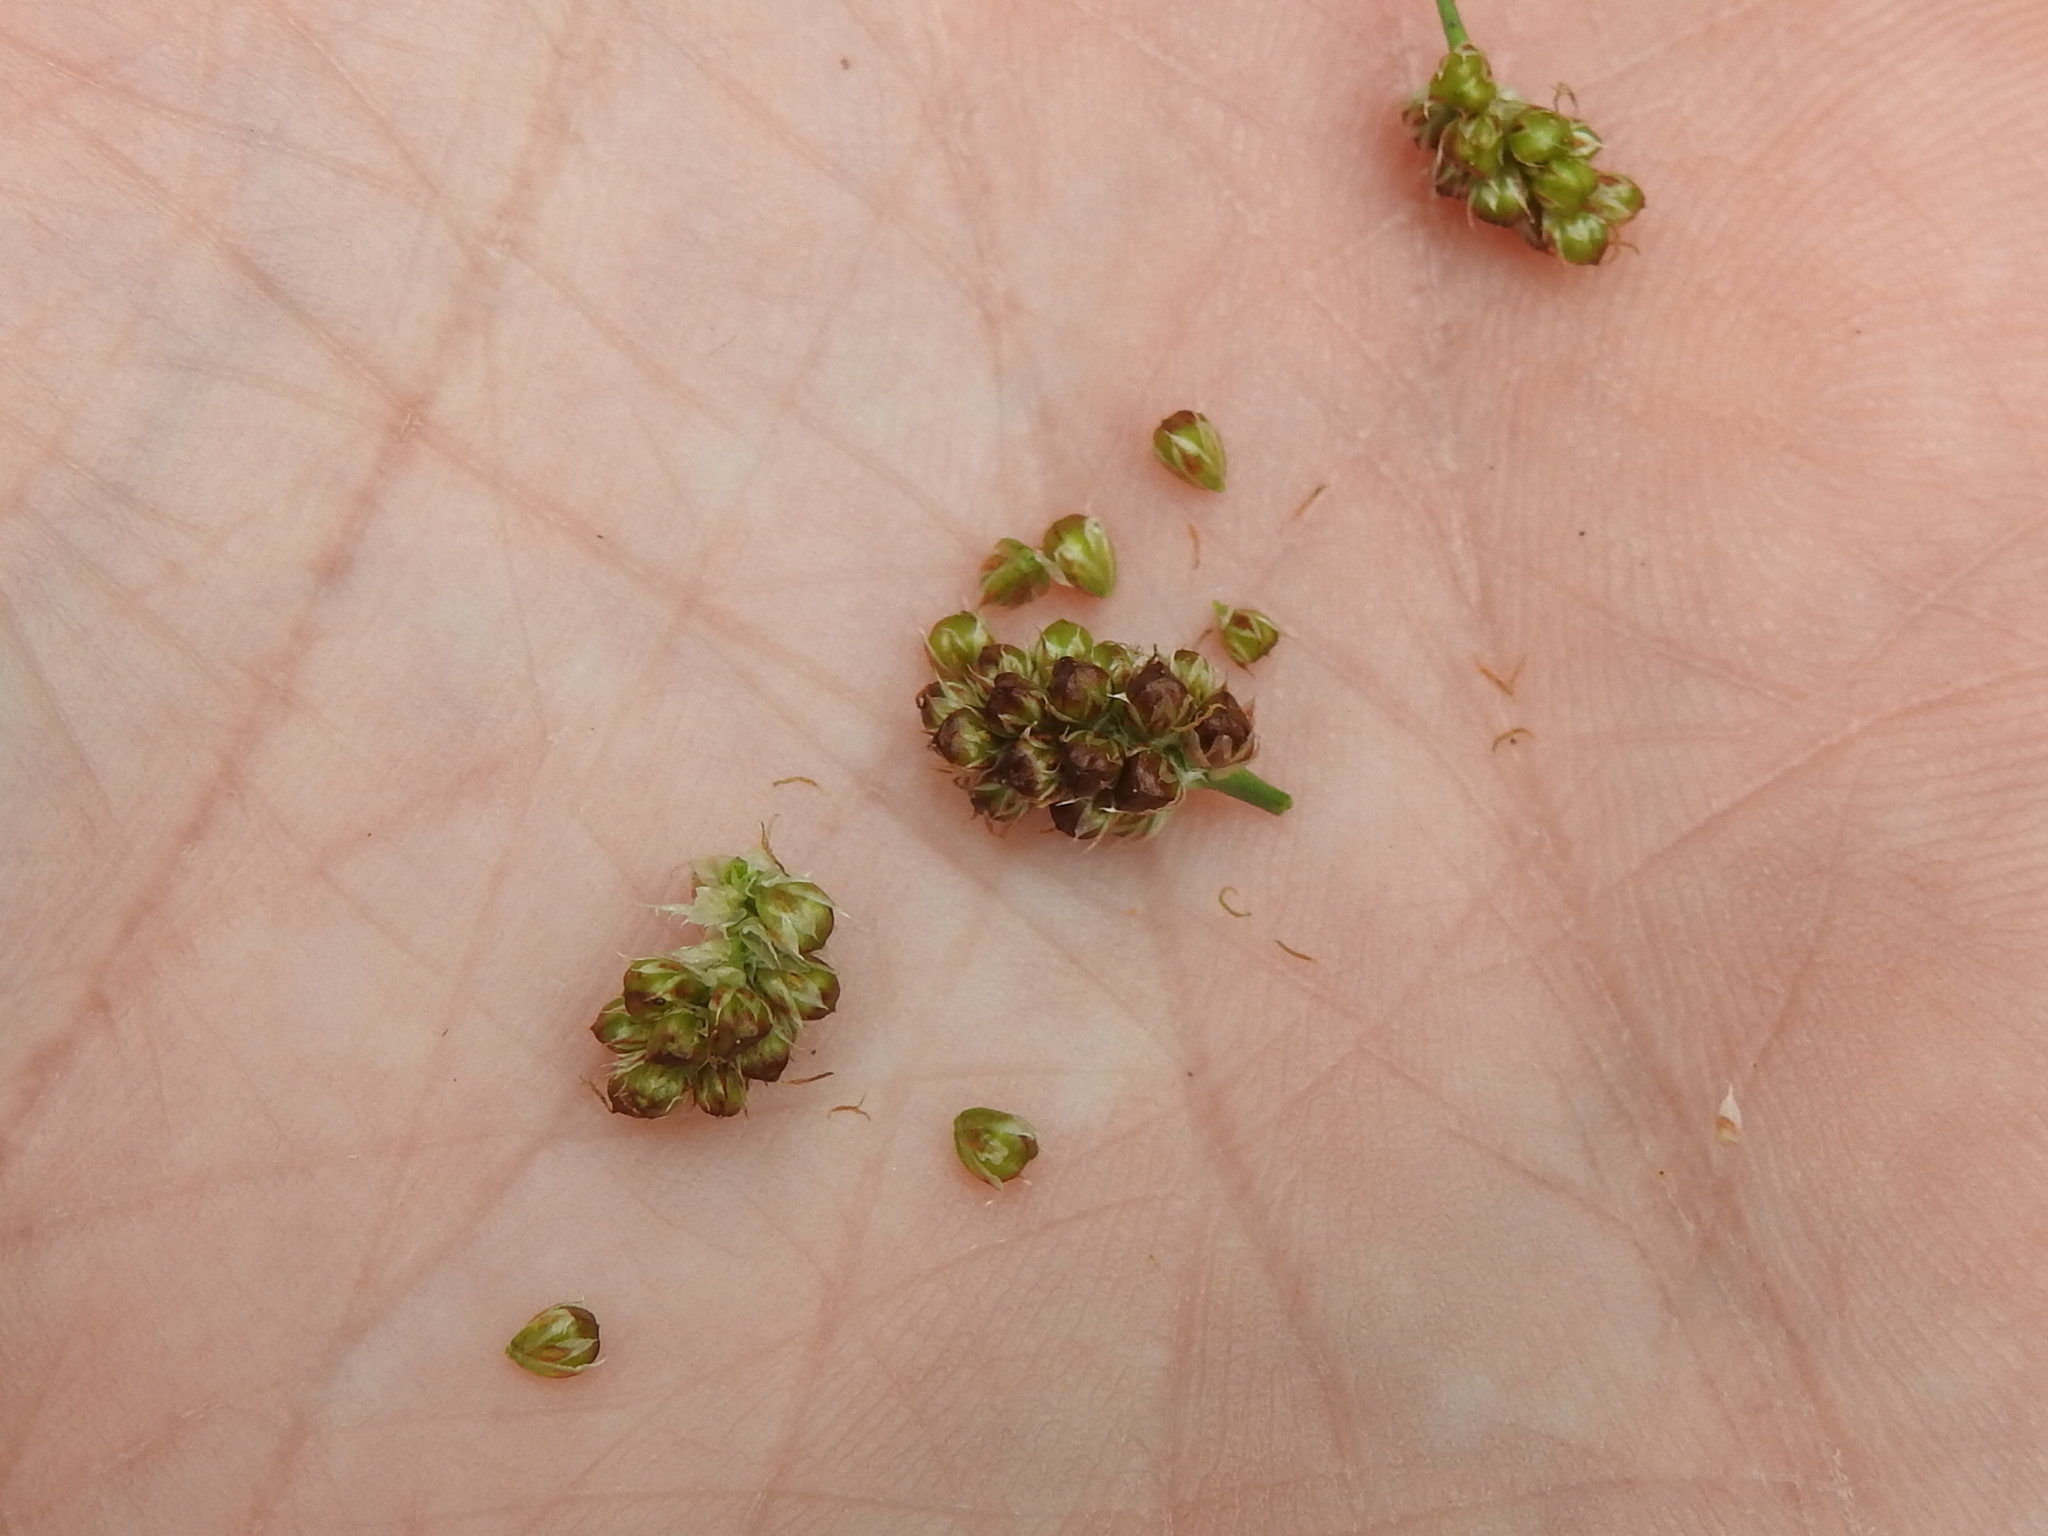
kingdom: Plantae
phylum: Tracheophyta
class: Liliopsida
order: Poales
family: Juncaceae
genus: Luzula
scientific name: Luzula multiflora
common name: Heath wood-rush
